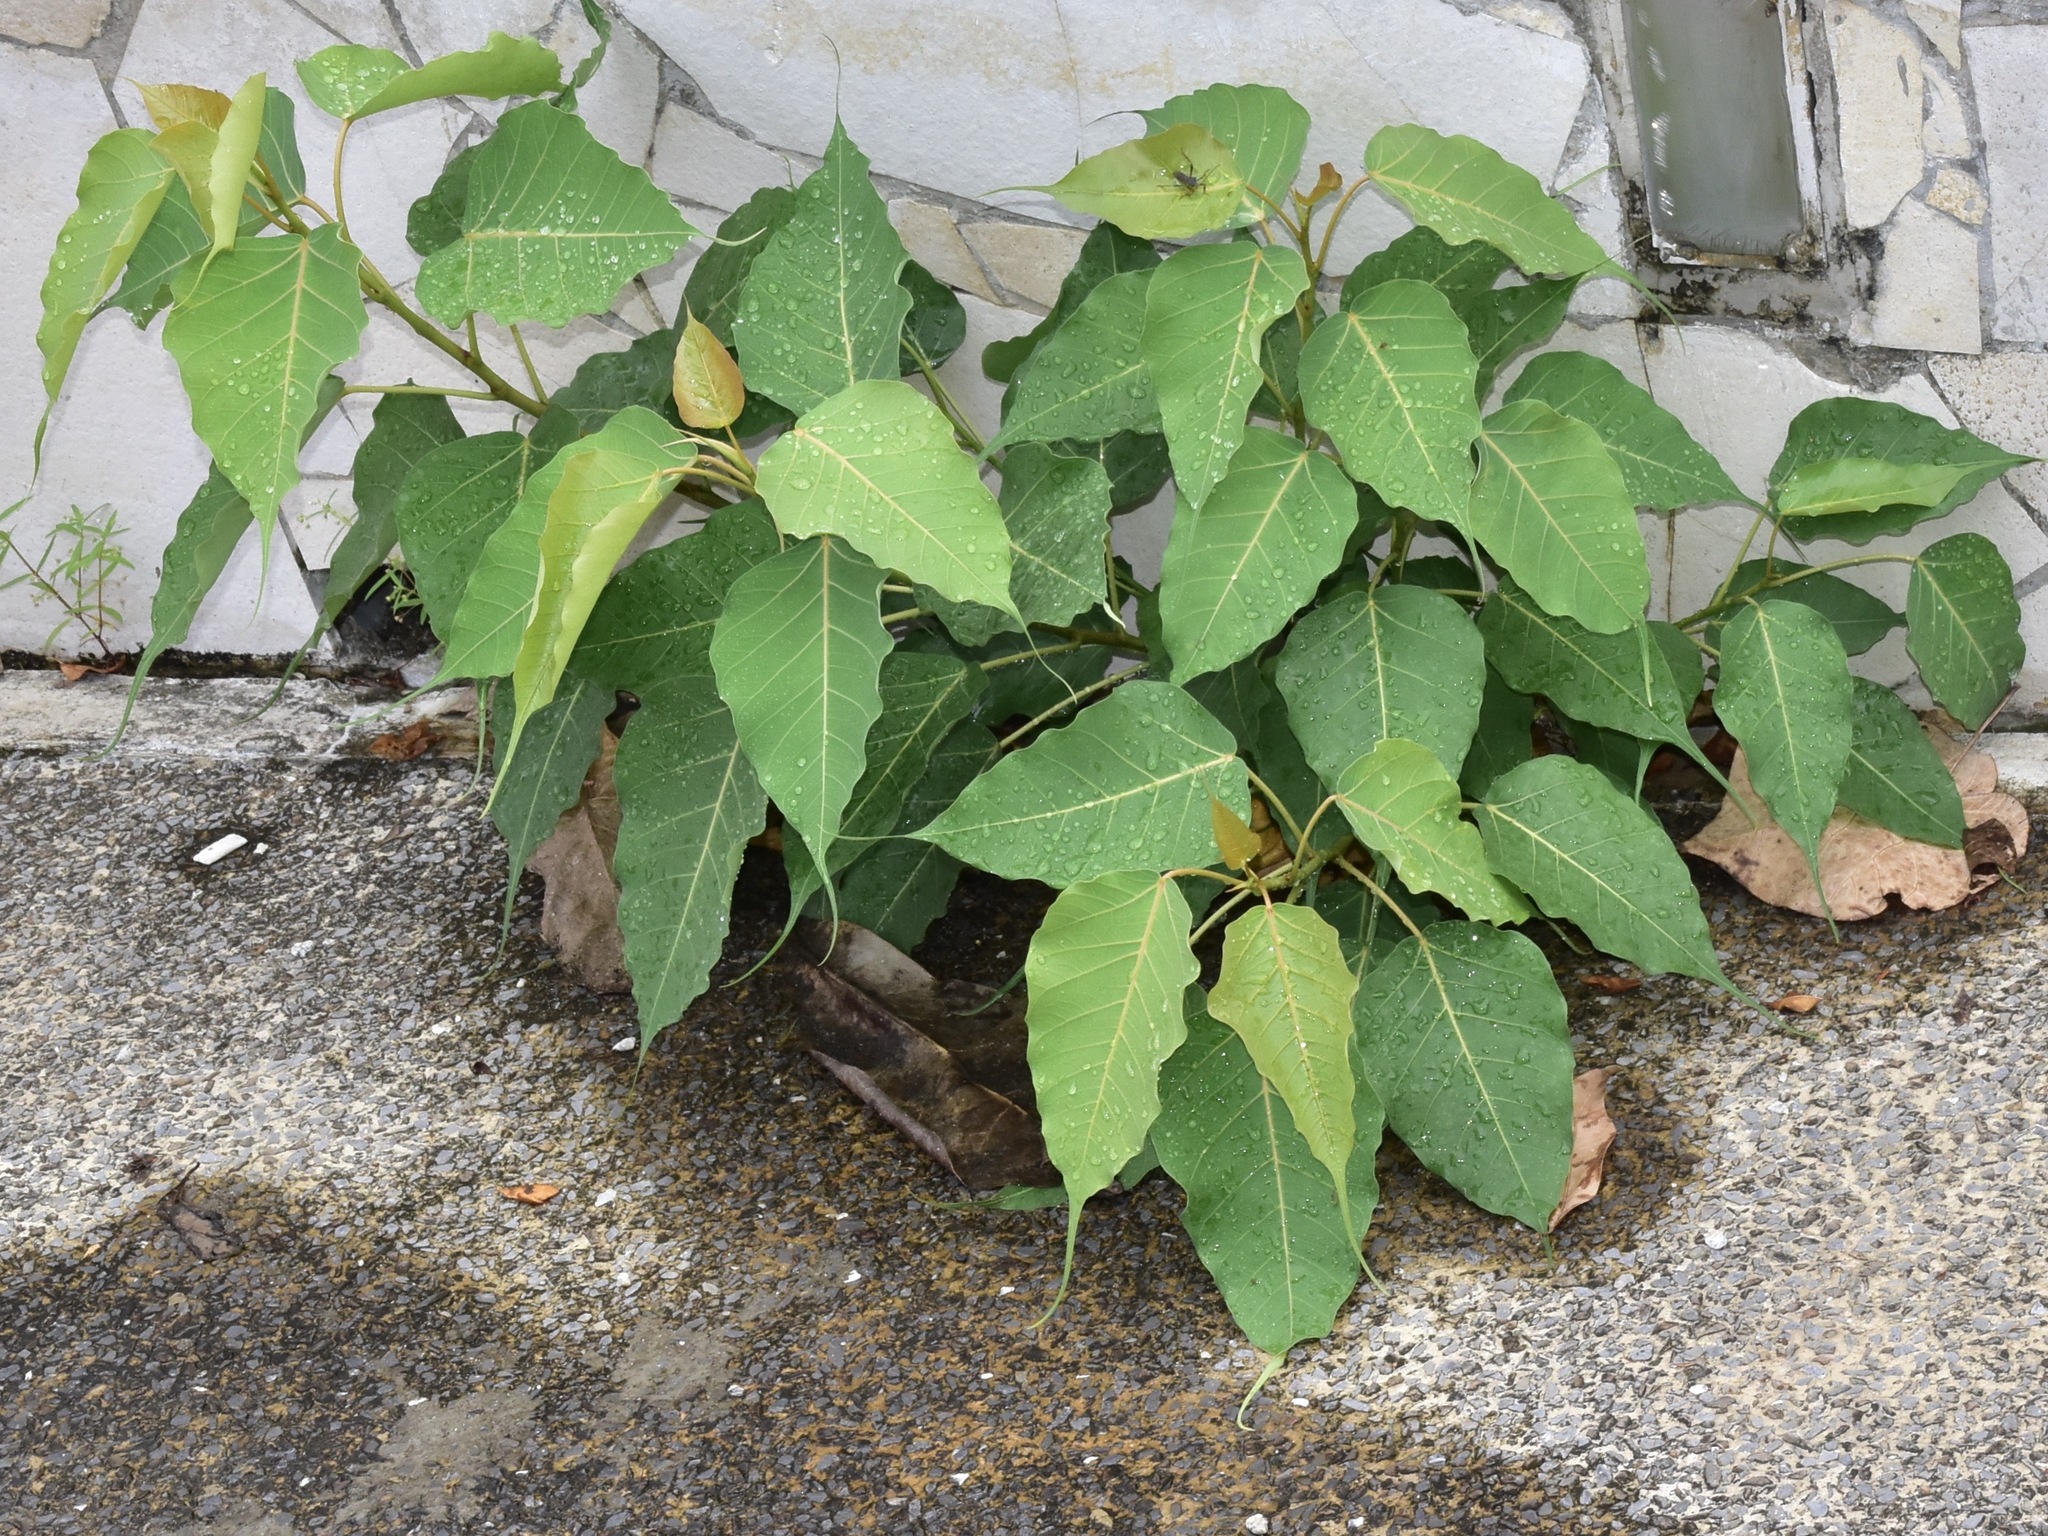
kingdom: Plantae
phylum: Tracheophyta
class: Magnoliopsida
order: Rosales
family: Moraceae
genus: Ficus
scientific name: Ficus religiosa
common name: Bodhi tree
